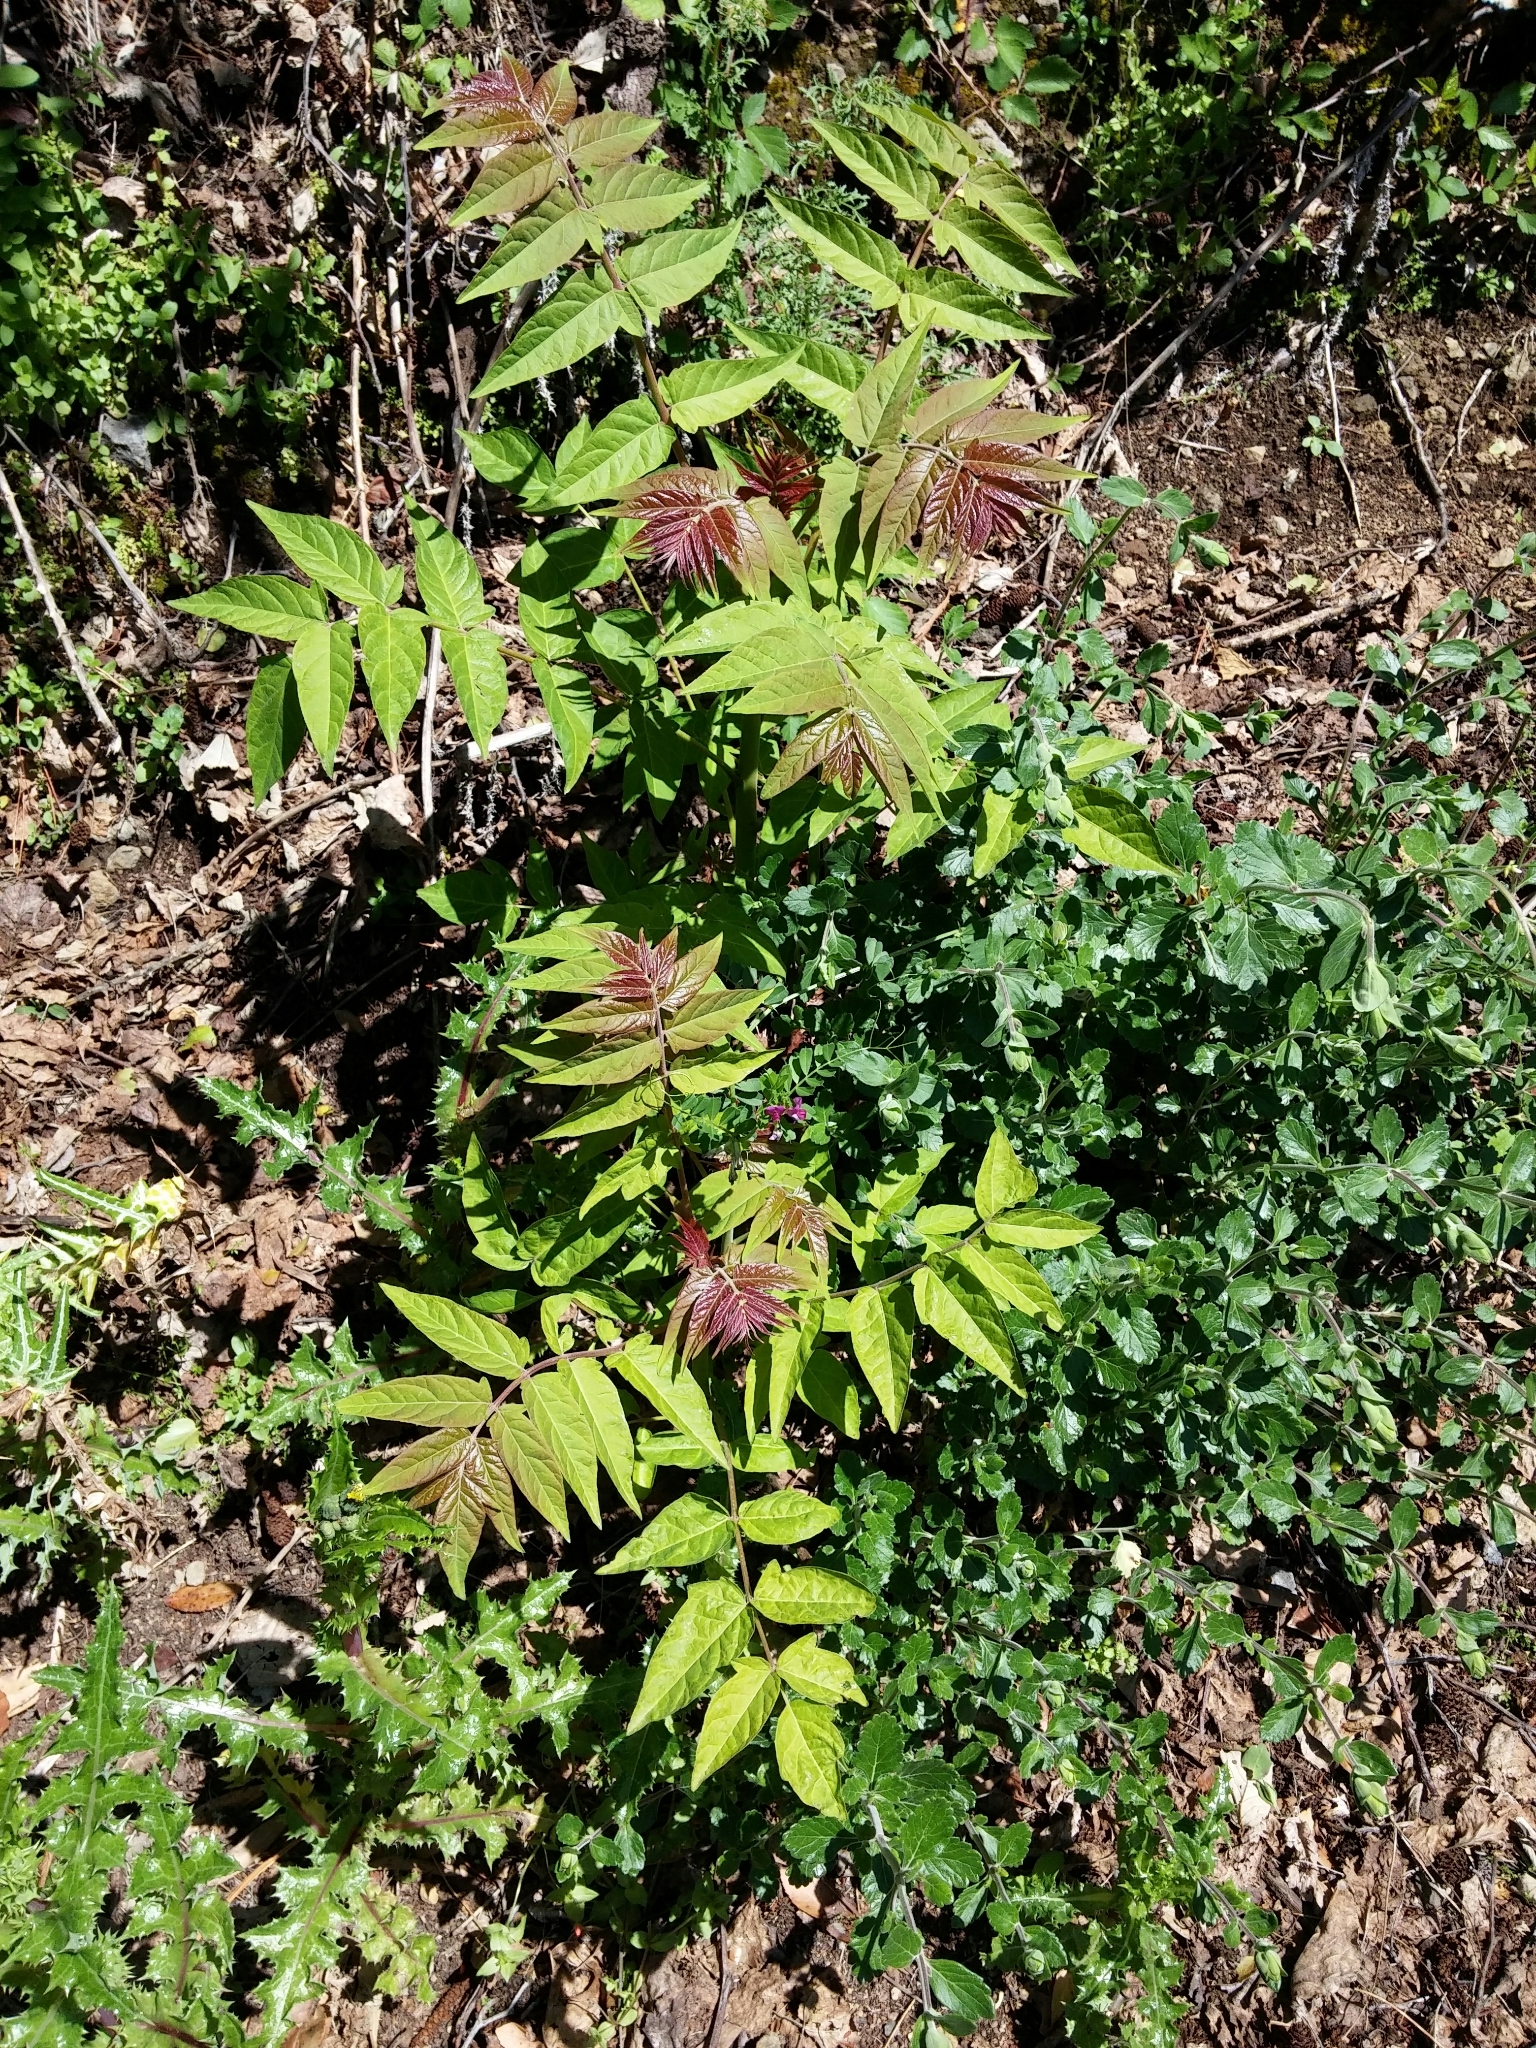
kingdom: Plantae
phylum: Tracheophyta
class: Magnoliopsida
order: Sapindales
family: Simaroubaceae
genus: Ailanthus
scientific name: Ailanthus altissima
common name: Tree-of-heaven
